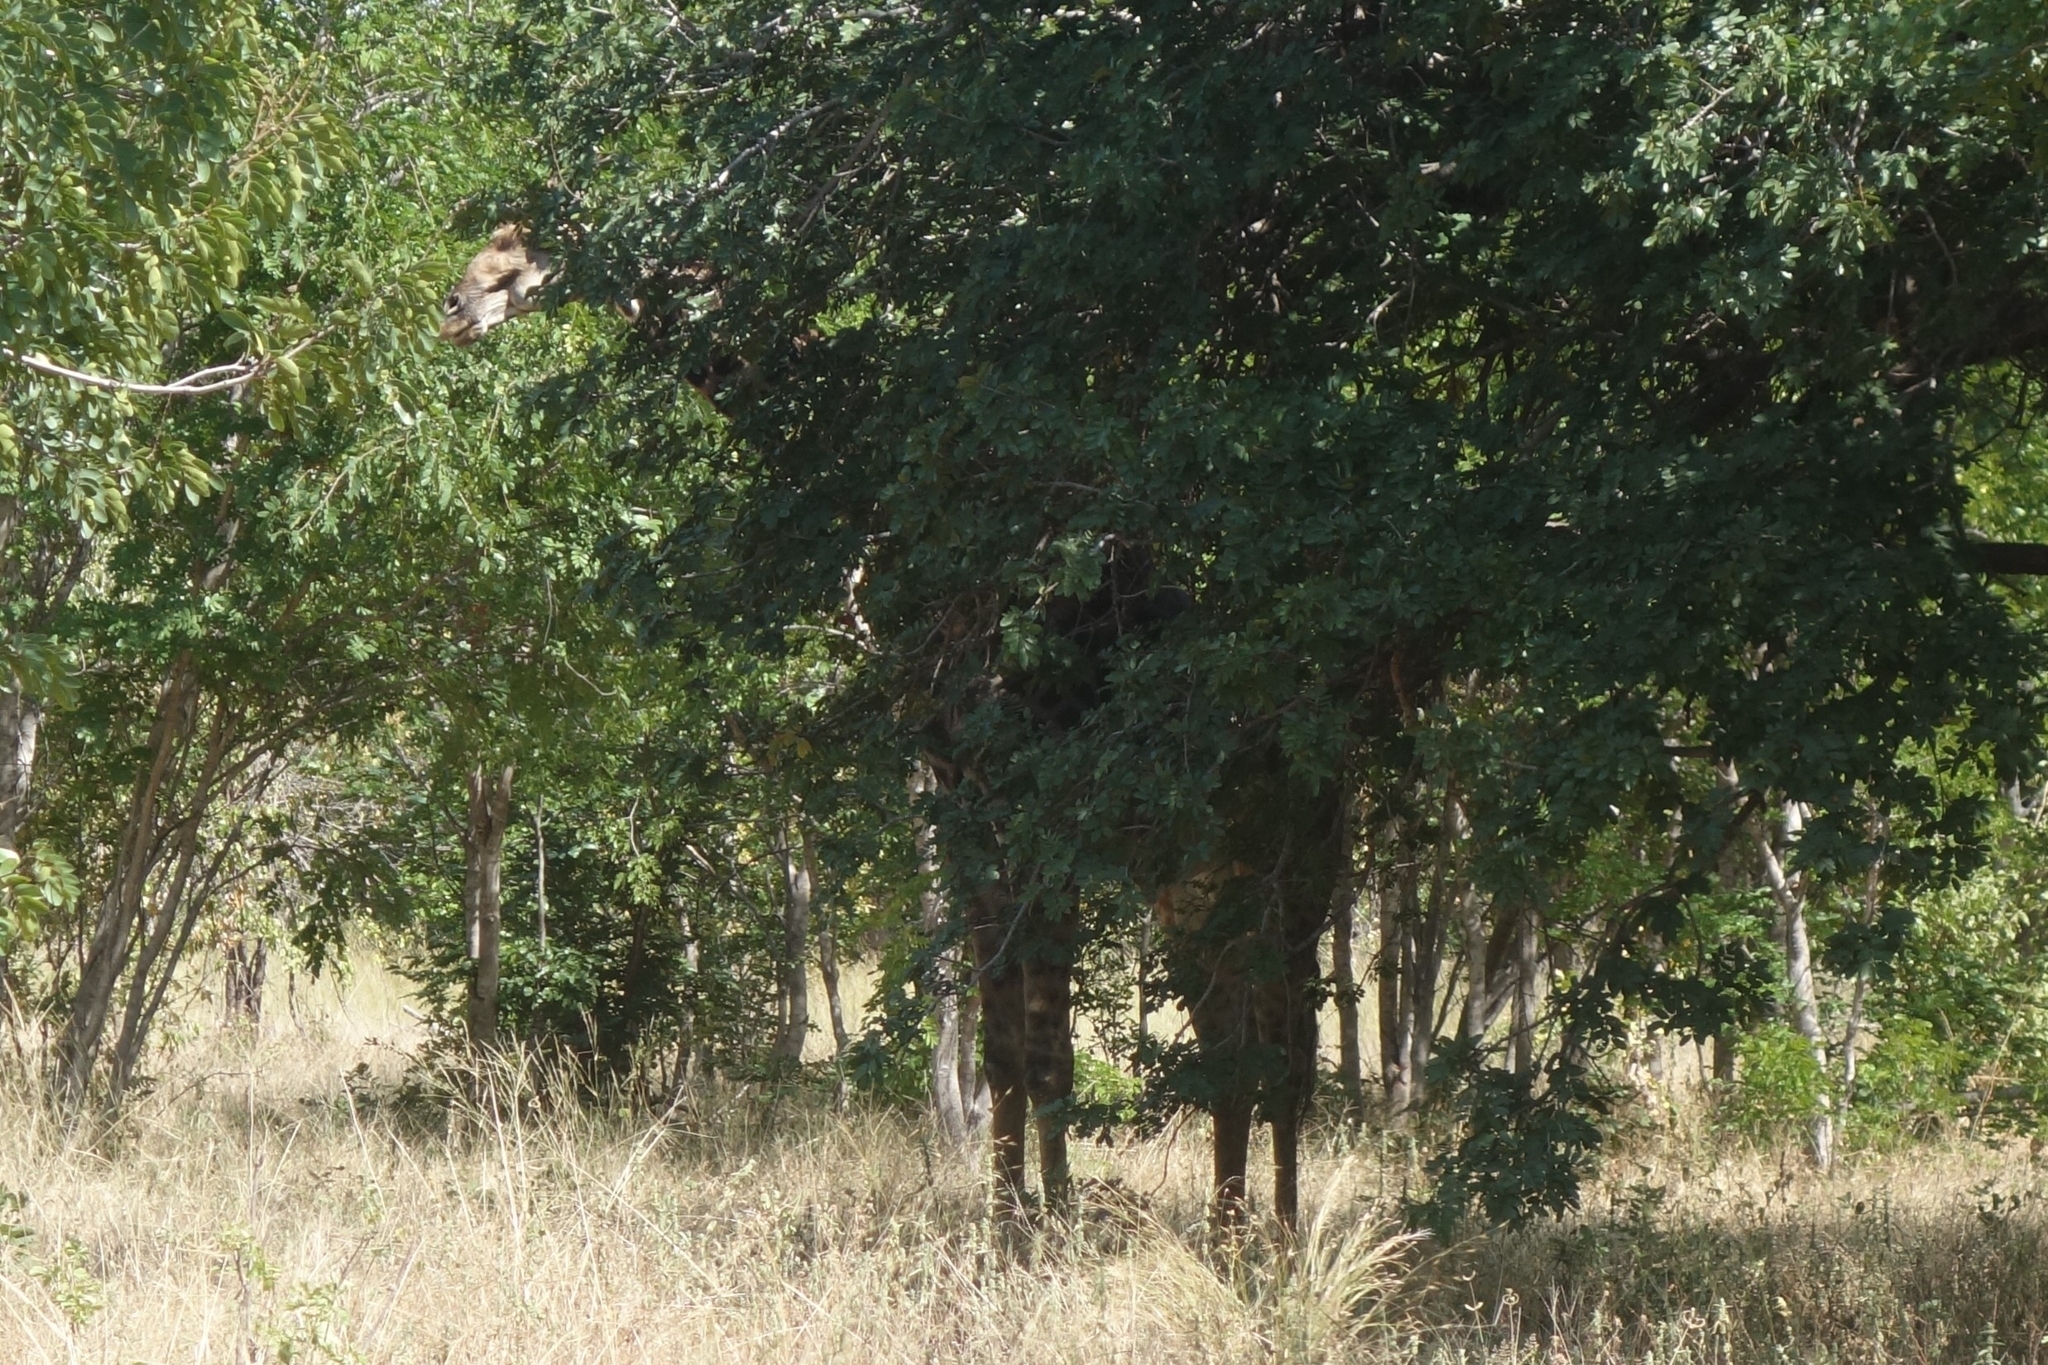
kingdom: Animalia
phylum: Chordata
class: Mammalia
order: Artiodactyla
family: Giraffidae
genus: Giraffa
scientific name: Giraffa giraffa
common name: Southern giraffe
